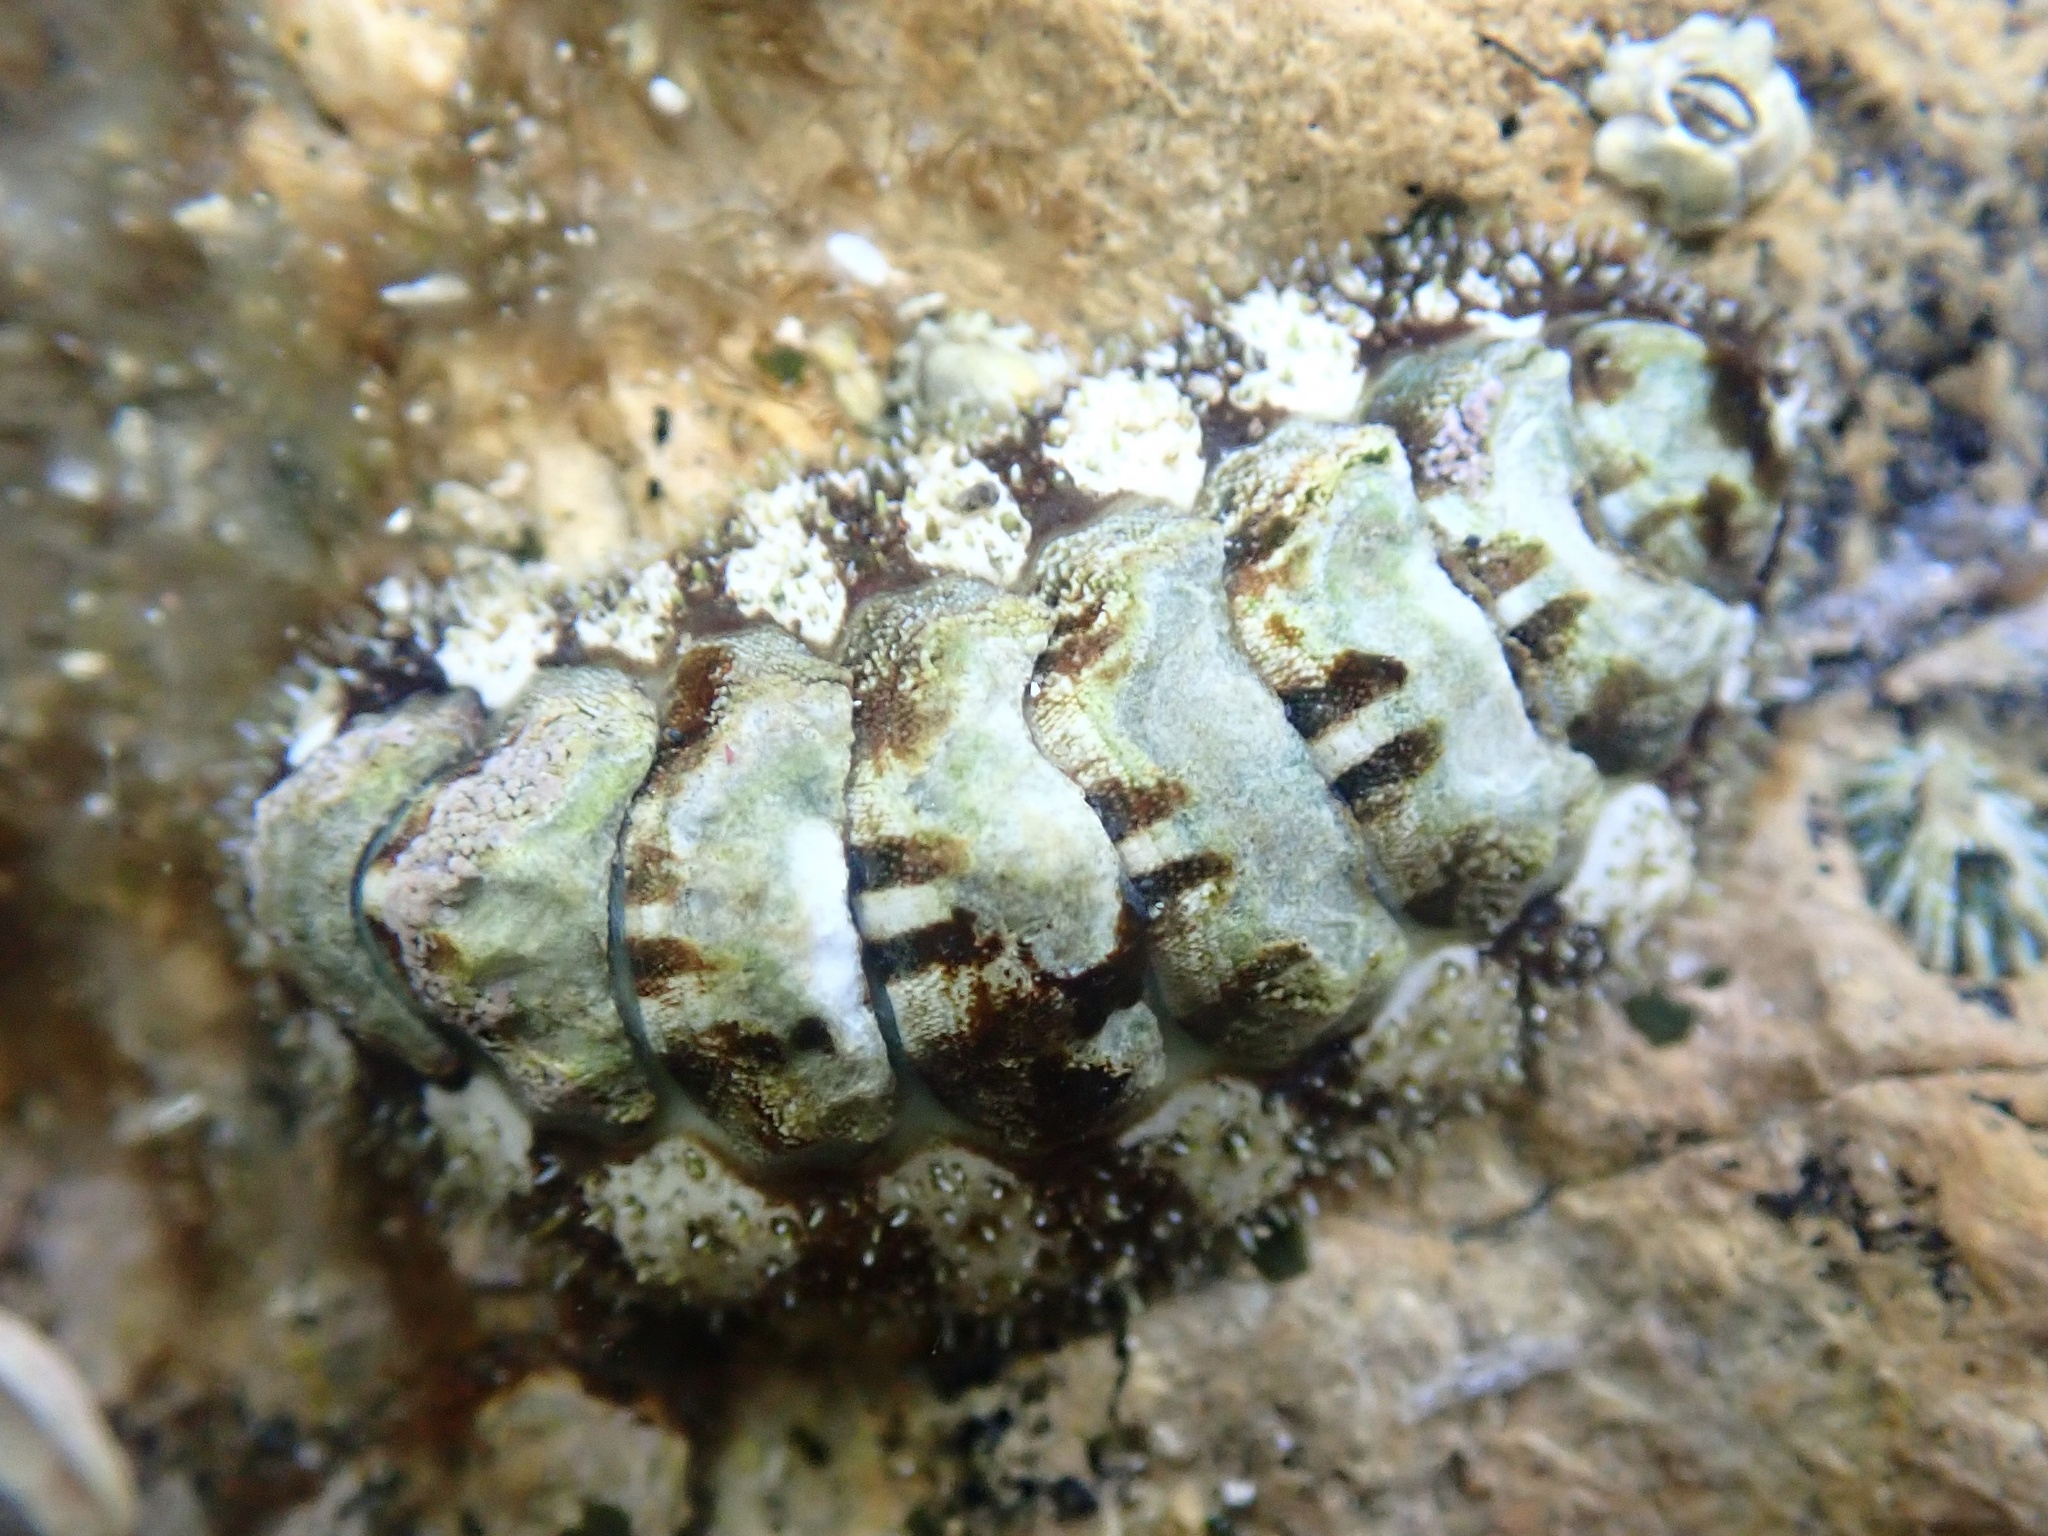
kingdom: Animalia
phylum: Mollusca
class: Polyplacophora
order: Chitonida
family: Tonicellidae
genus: Nuttallina
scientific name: Nuttallina californica
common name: California nuttall chiton
